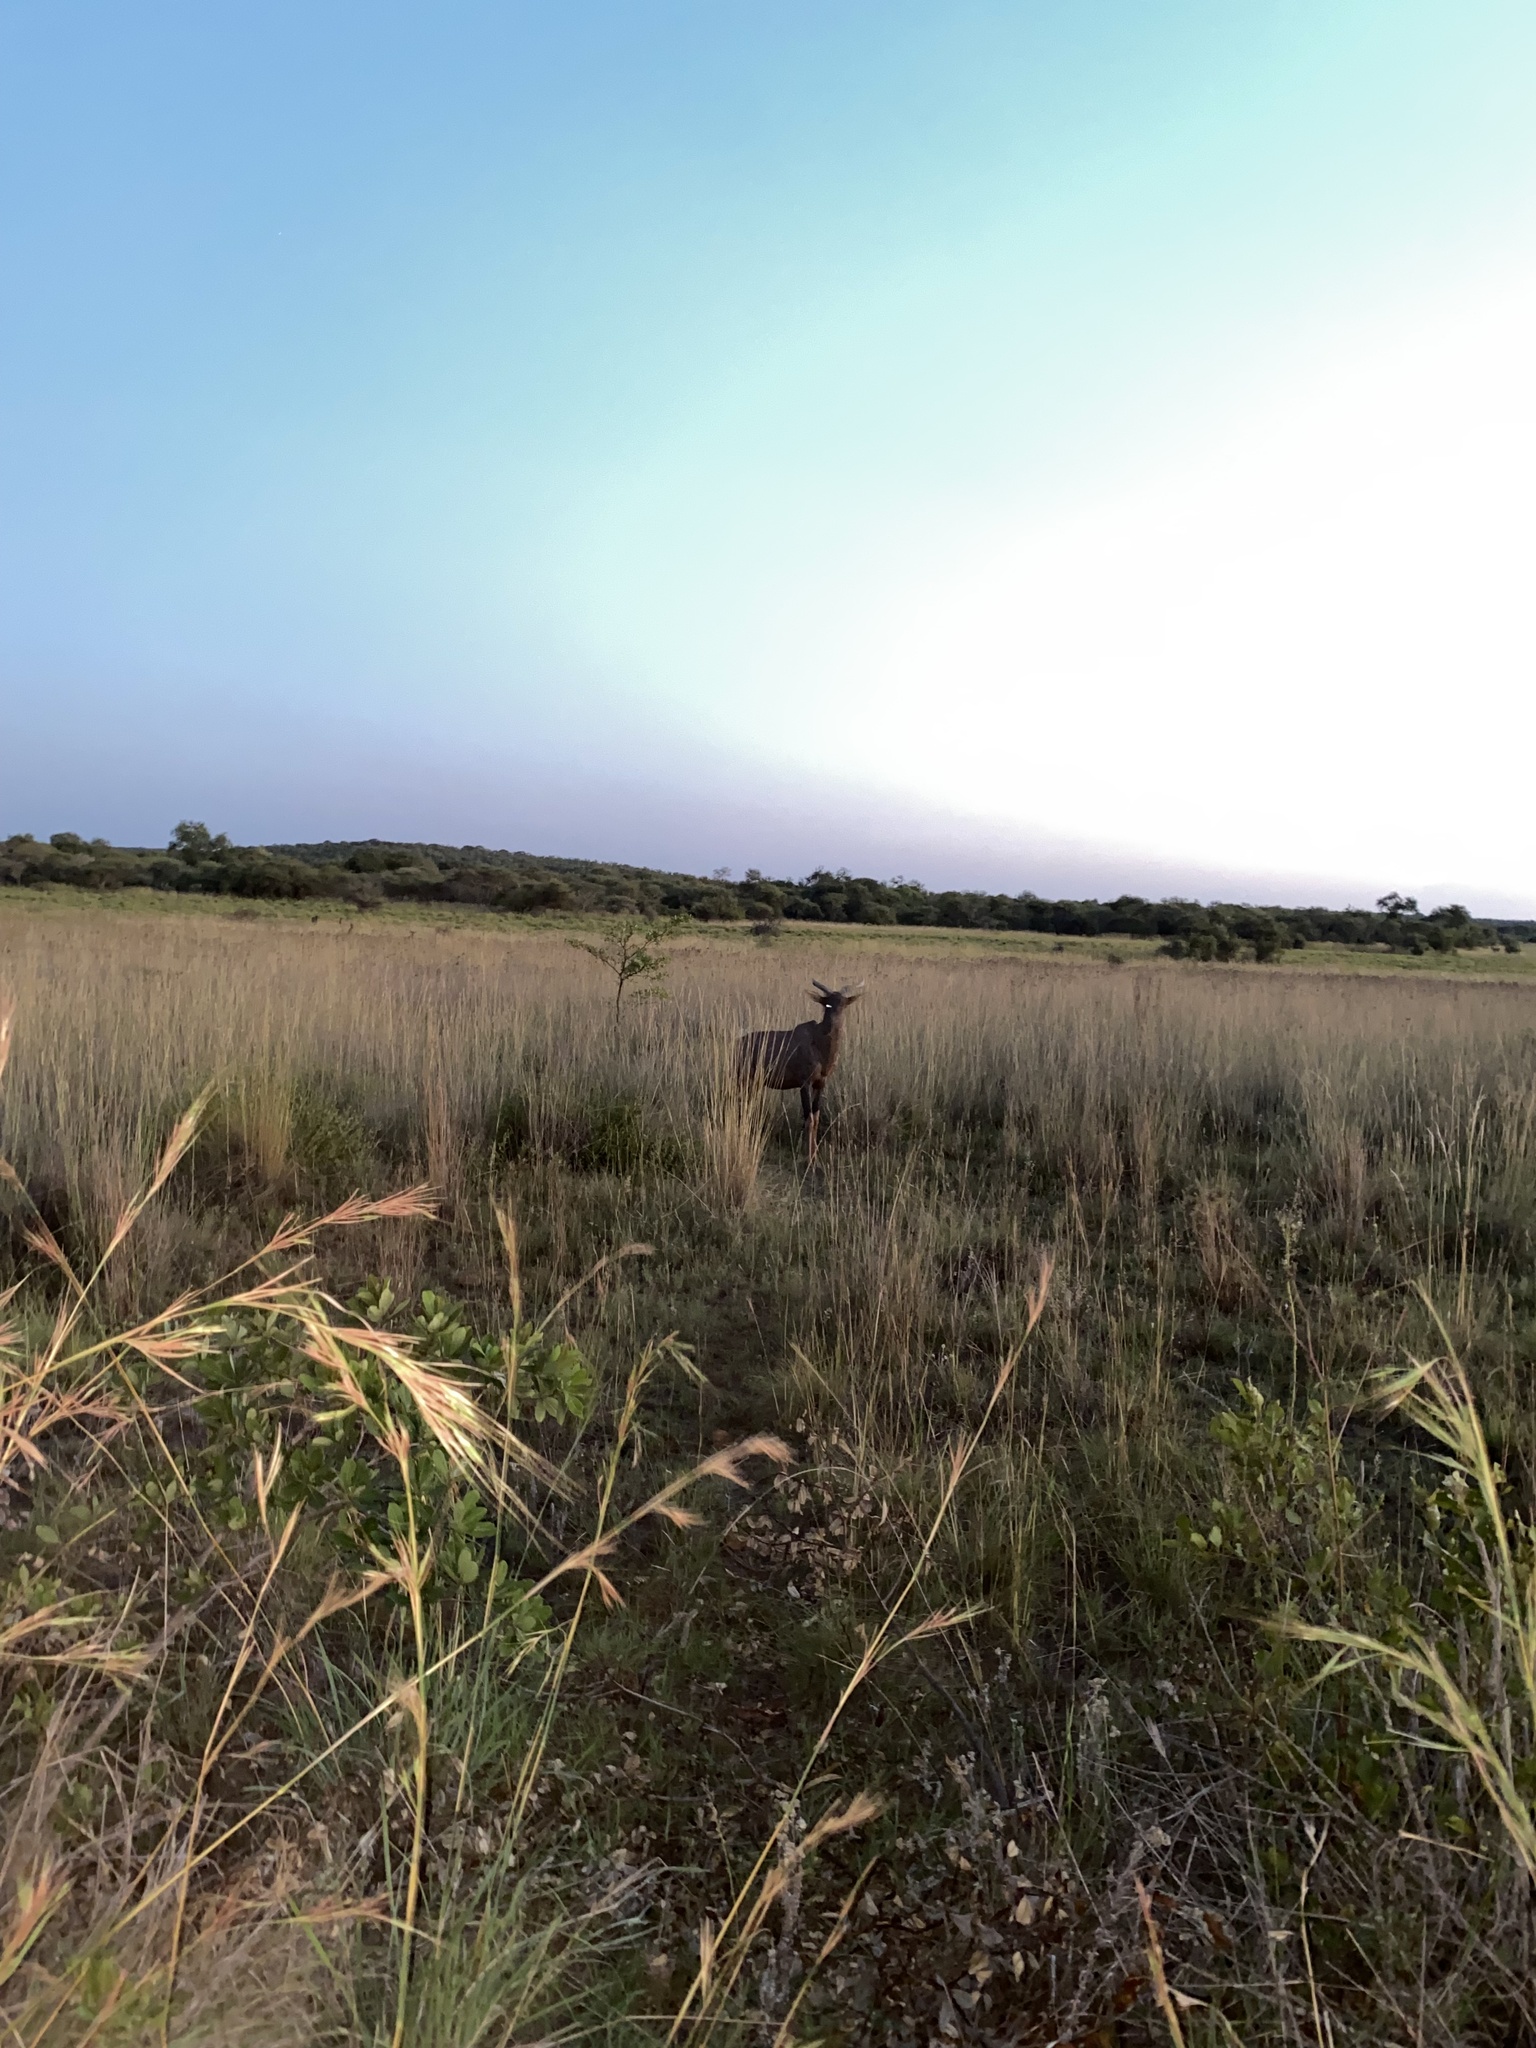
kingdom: Animalia
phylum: Chordata
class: Mammalia
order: Artiodactyla
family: Bovidae
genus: Damaliscus
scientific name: Damaliscus lunatus
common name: Common tsessebe
